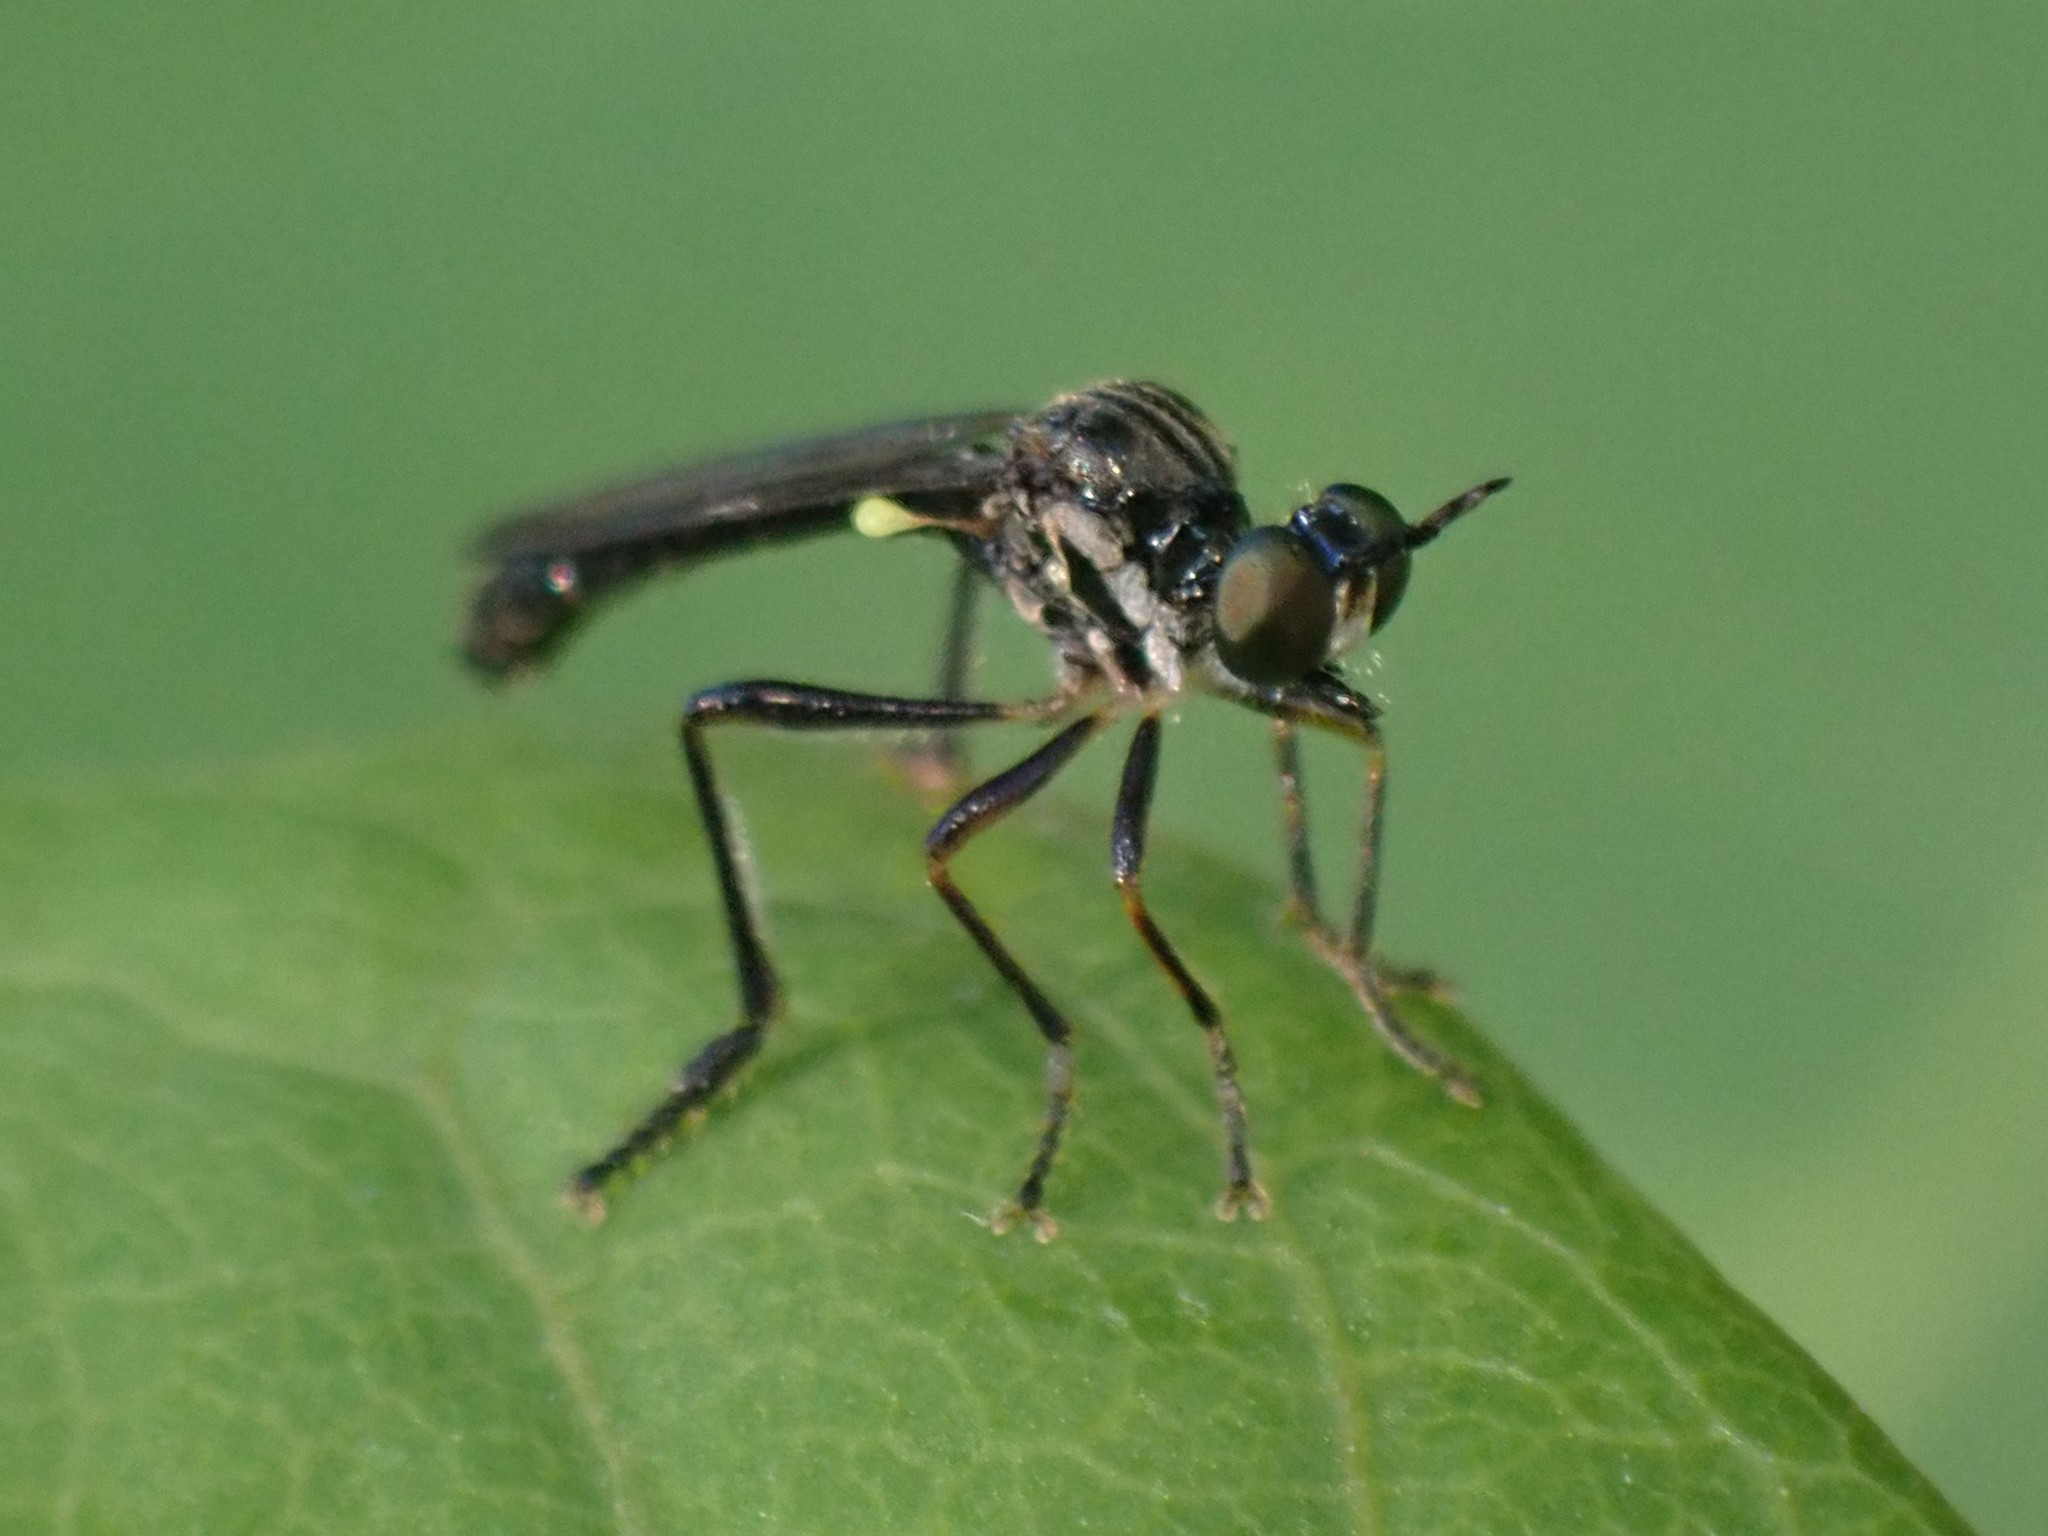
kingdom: Animalia
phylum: Arthropoda
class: Insecta
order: Diptera
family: Asilidae
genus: Dioctria
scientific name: Dioctria hyalipennis
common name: Stripe-legged robberfly
